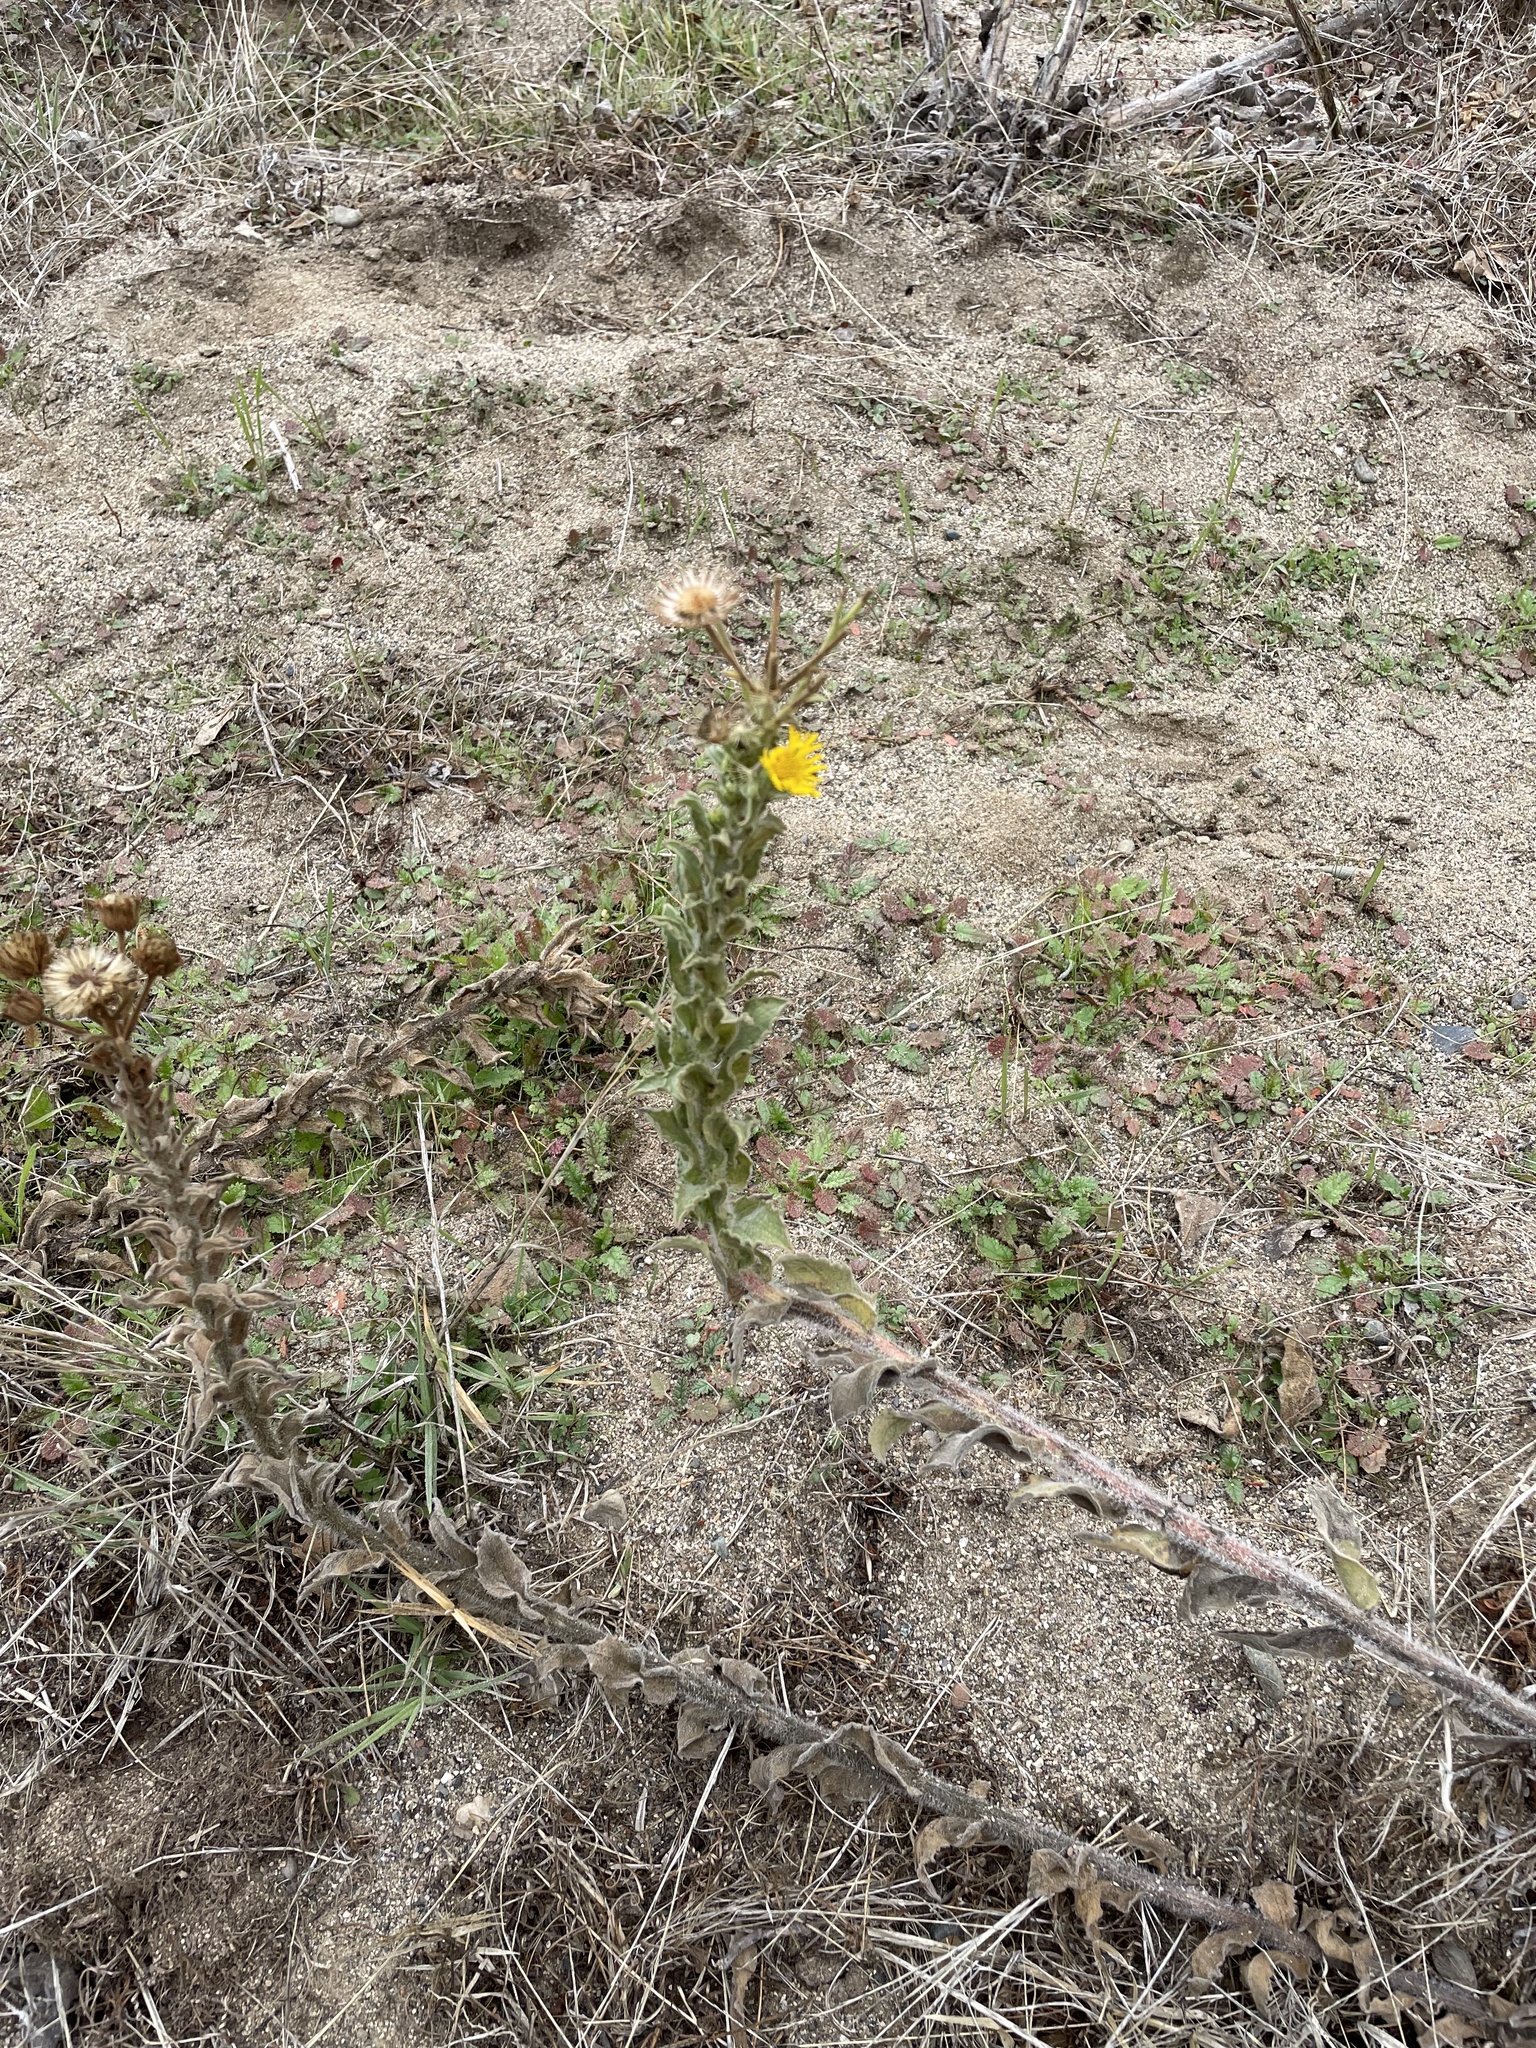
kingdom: Plantae
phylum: Tracheophyta
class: Magnoliopsida
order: Asterales
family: Asteraceae
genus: Heterotheca
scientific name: Heterotheca grandiflora
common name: Telegraphweed
